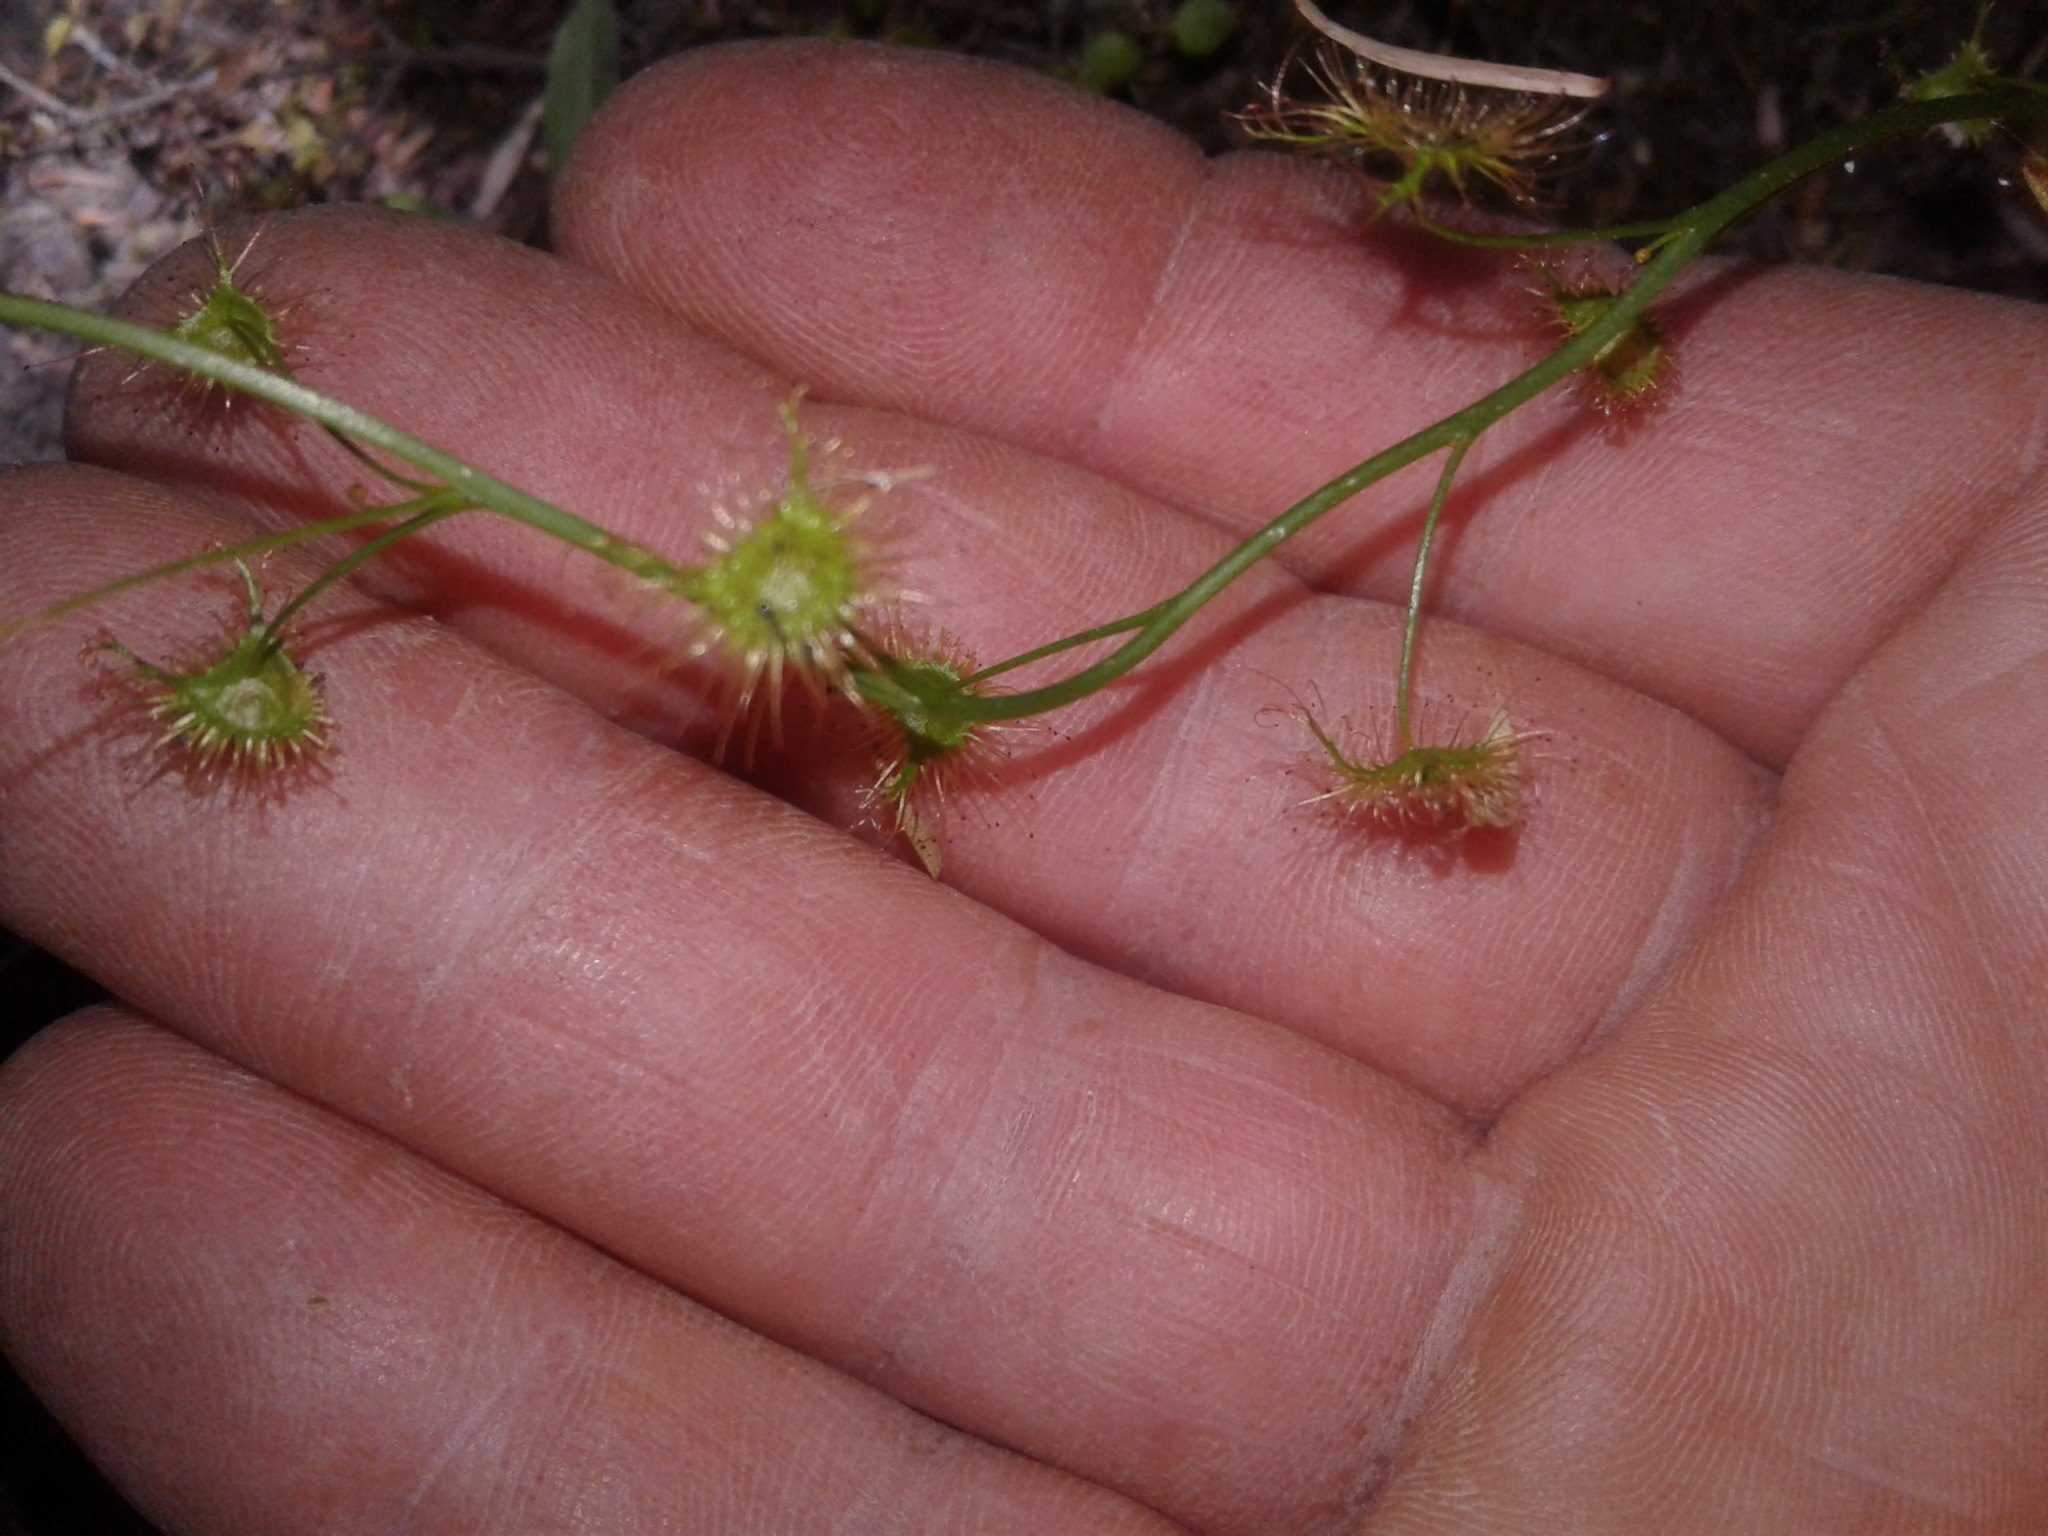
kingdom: Plantae
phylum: Tracheophyta
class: Magnoliopsida
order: Caryophyllales
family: Droseraceae
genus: Drosera
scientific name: Drosera peltata
